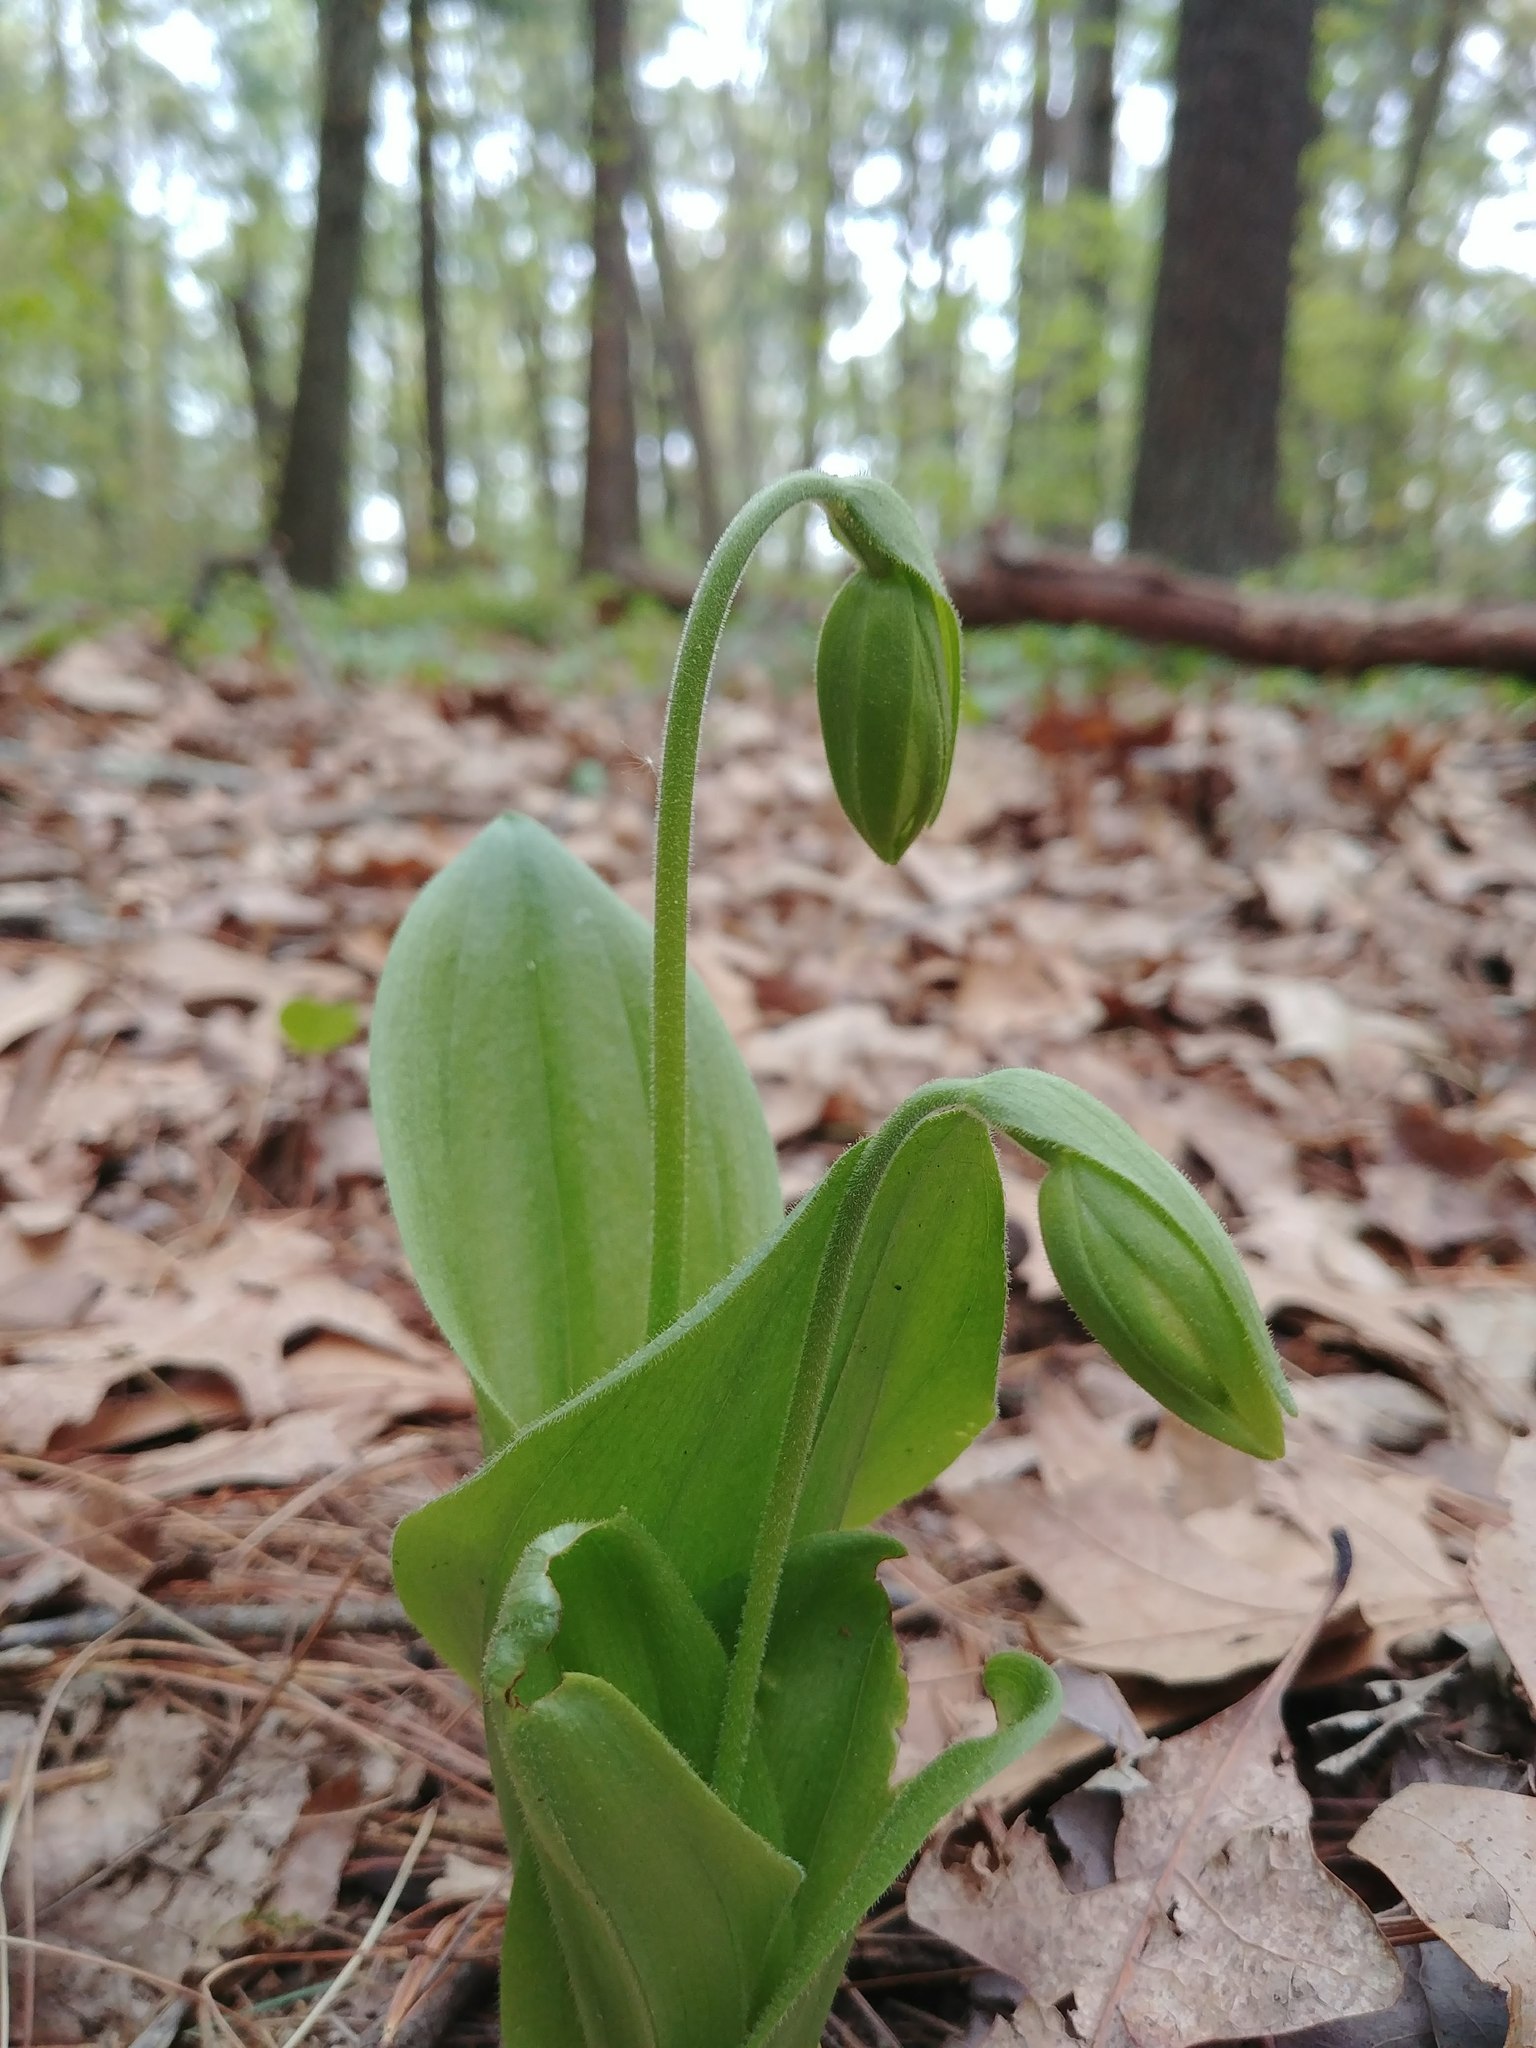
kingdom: Plantae
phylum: Tracheophyta
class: Liliopsida
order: Asparagales
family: Orchidaceae
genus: Cypripedium
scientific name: Cypripedium acaule
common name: Pink lady's-slipper
